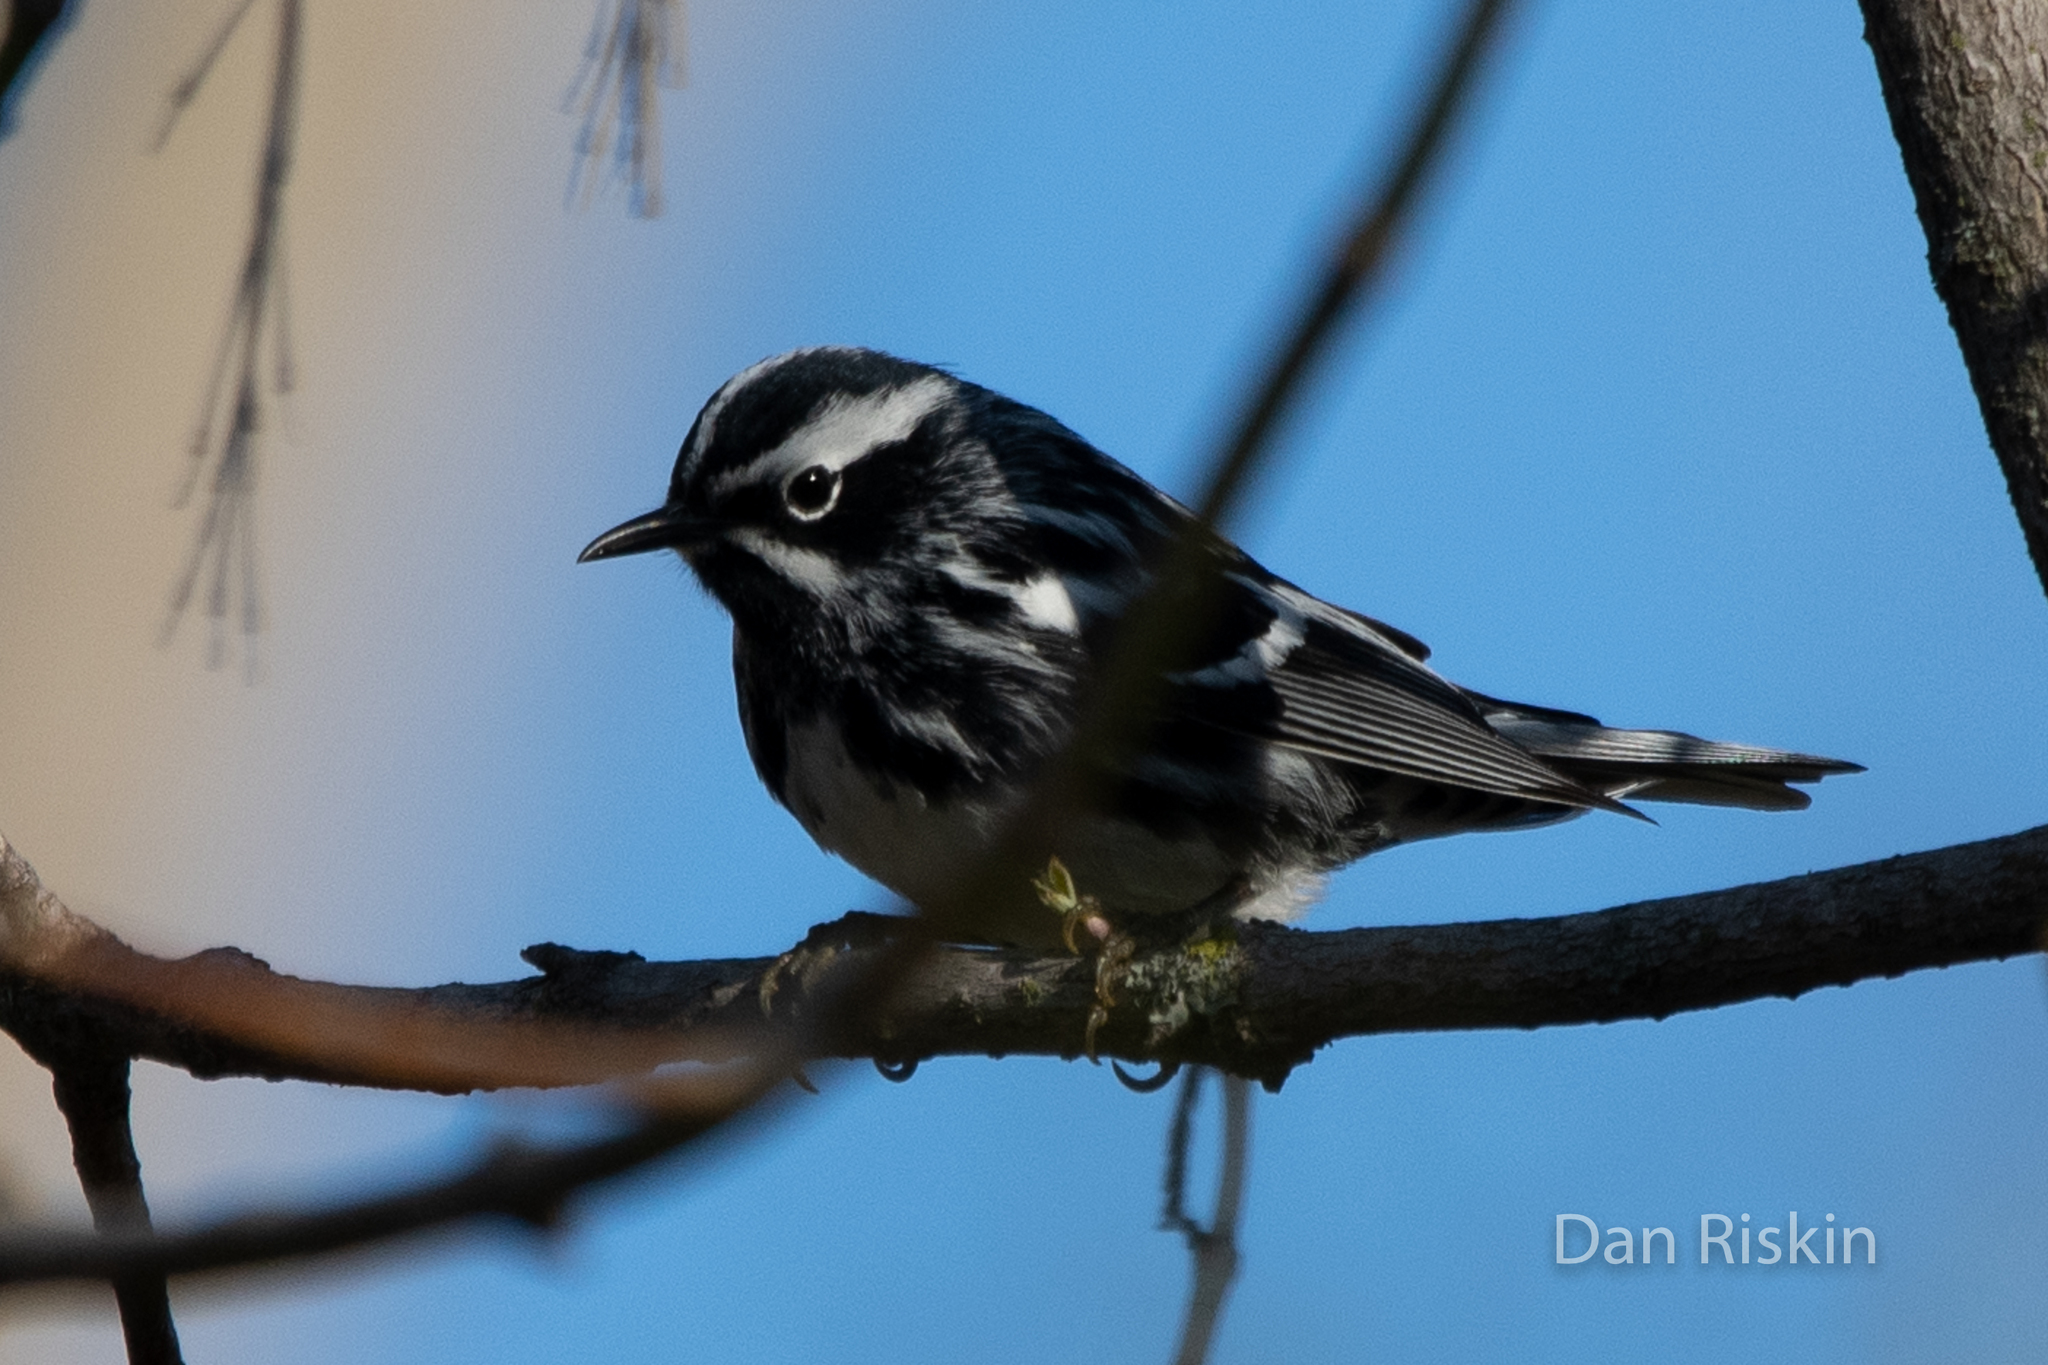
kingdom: Animalia
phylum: Chordata
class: Aves
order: Passeriformes
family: Parulidae
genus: Mniotilta
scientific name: Mniotilta varia
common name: Black-and-white warbler
